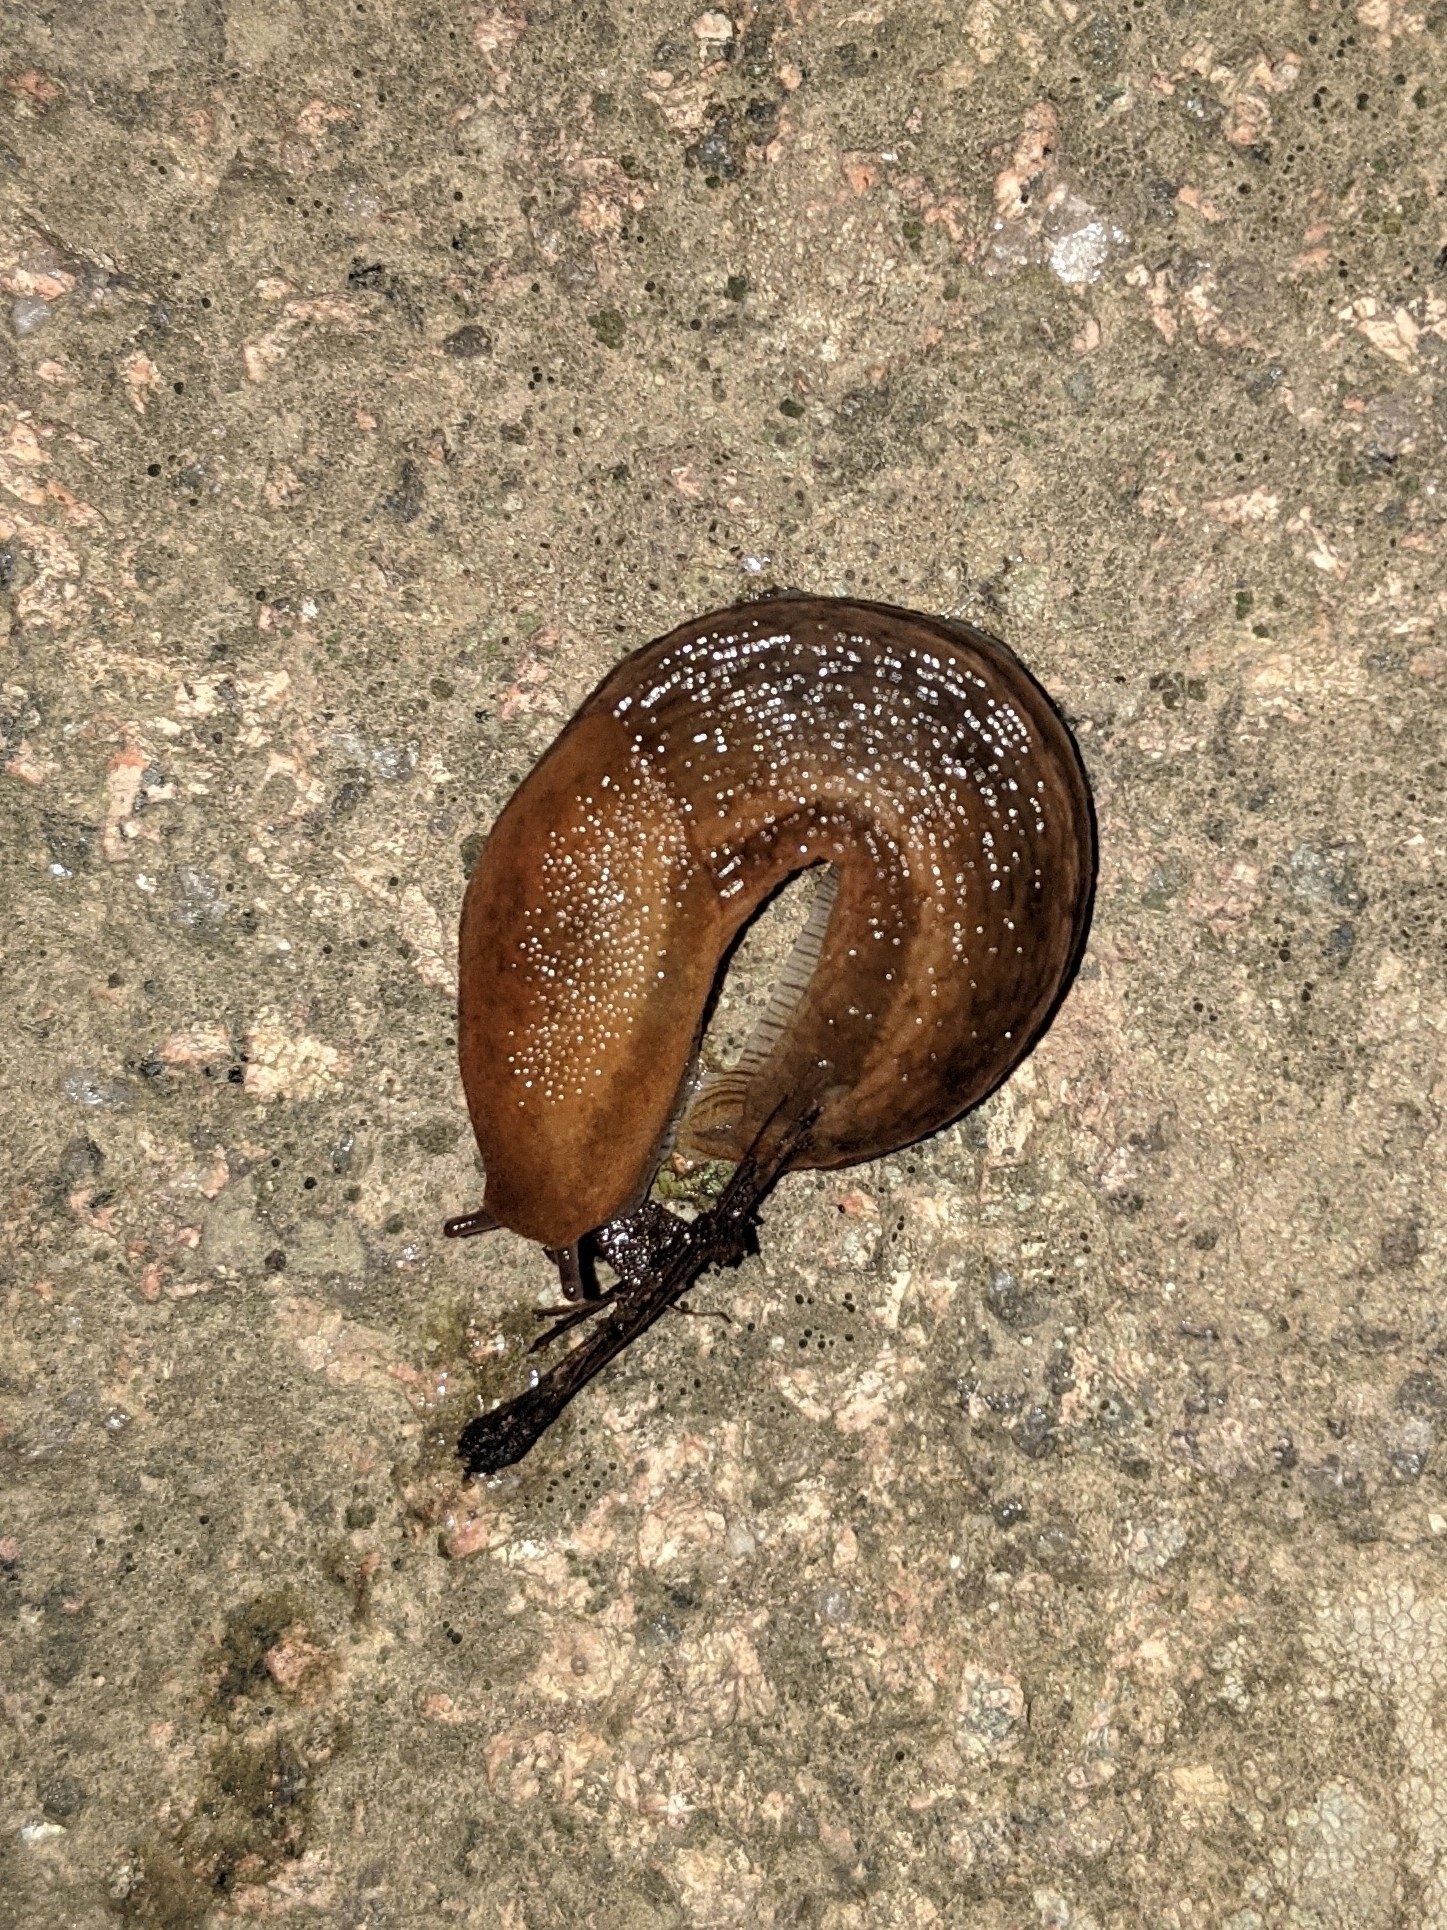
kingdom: Animalia
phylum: Mollusca
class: Gastropoda
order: Stylommatophora
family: Arionidae
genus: Arion
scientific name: Arion subfuscus
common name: Dusky arion
